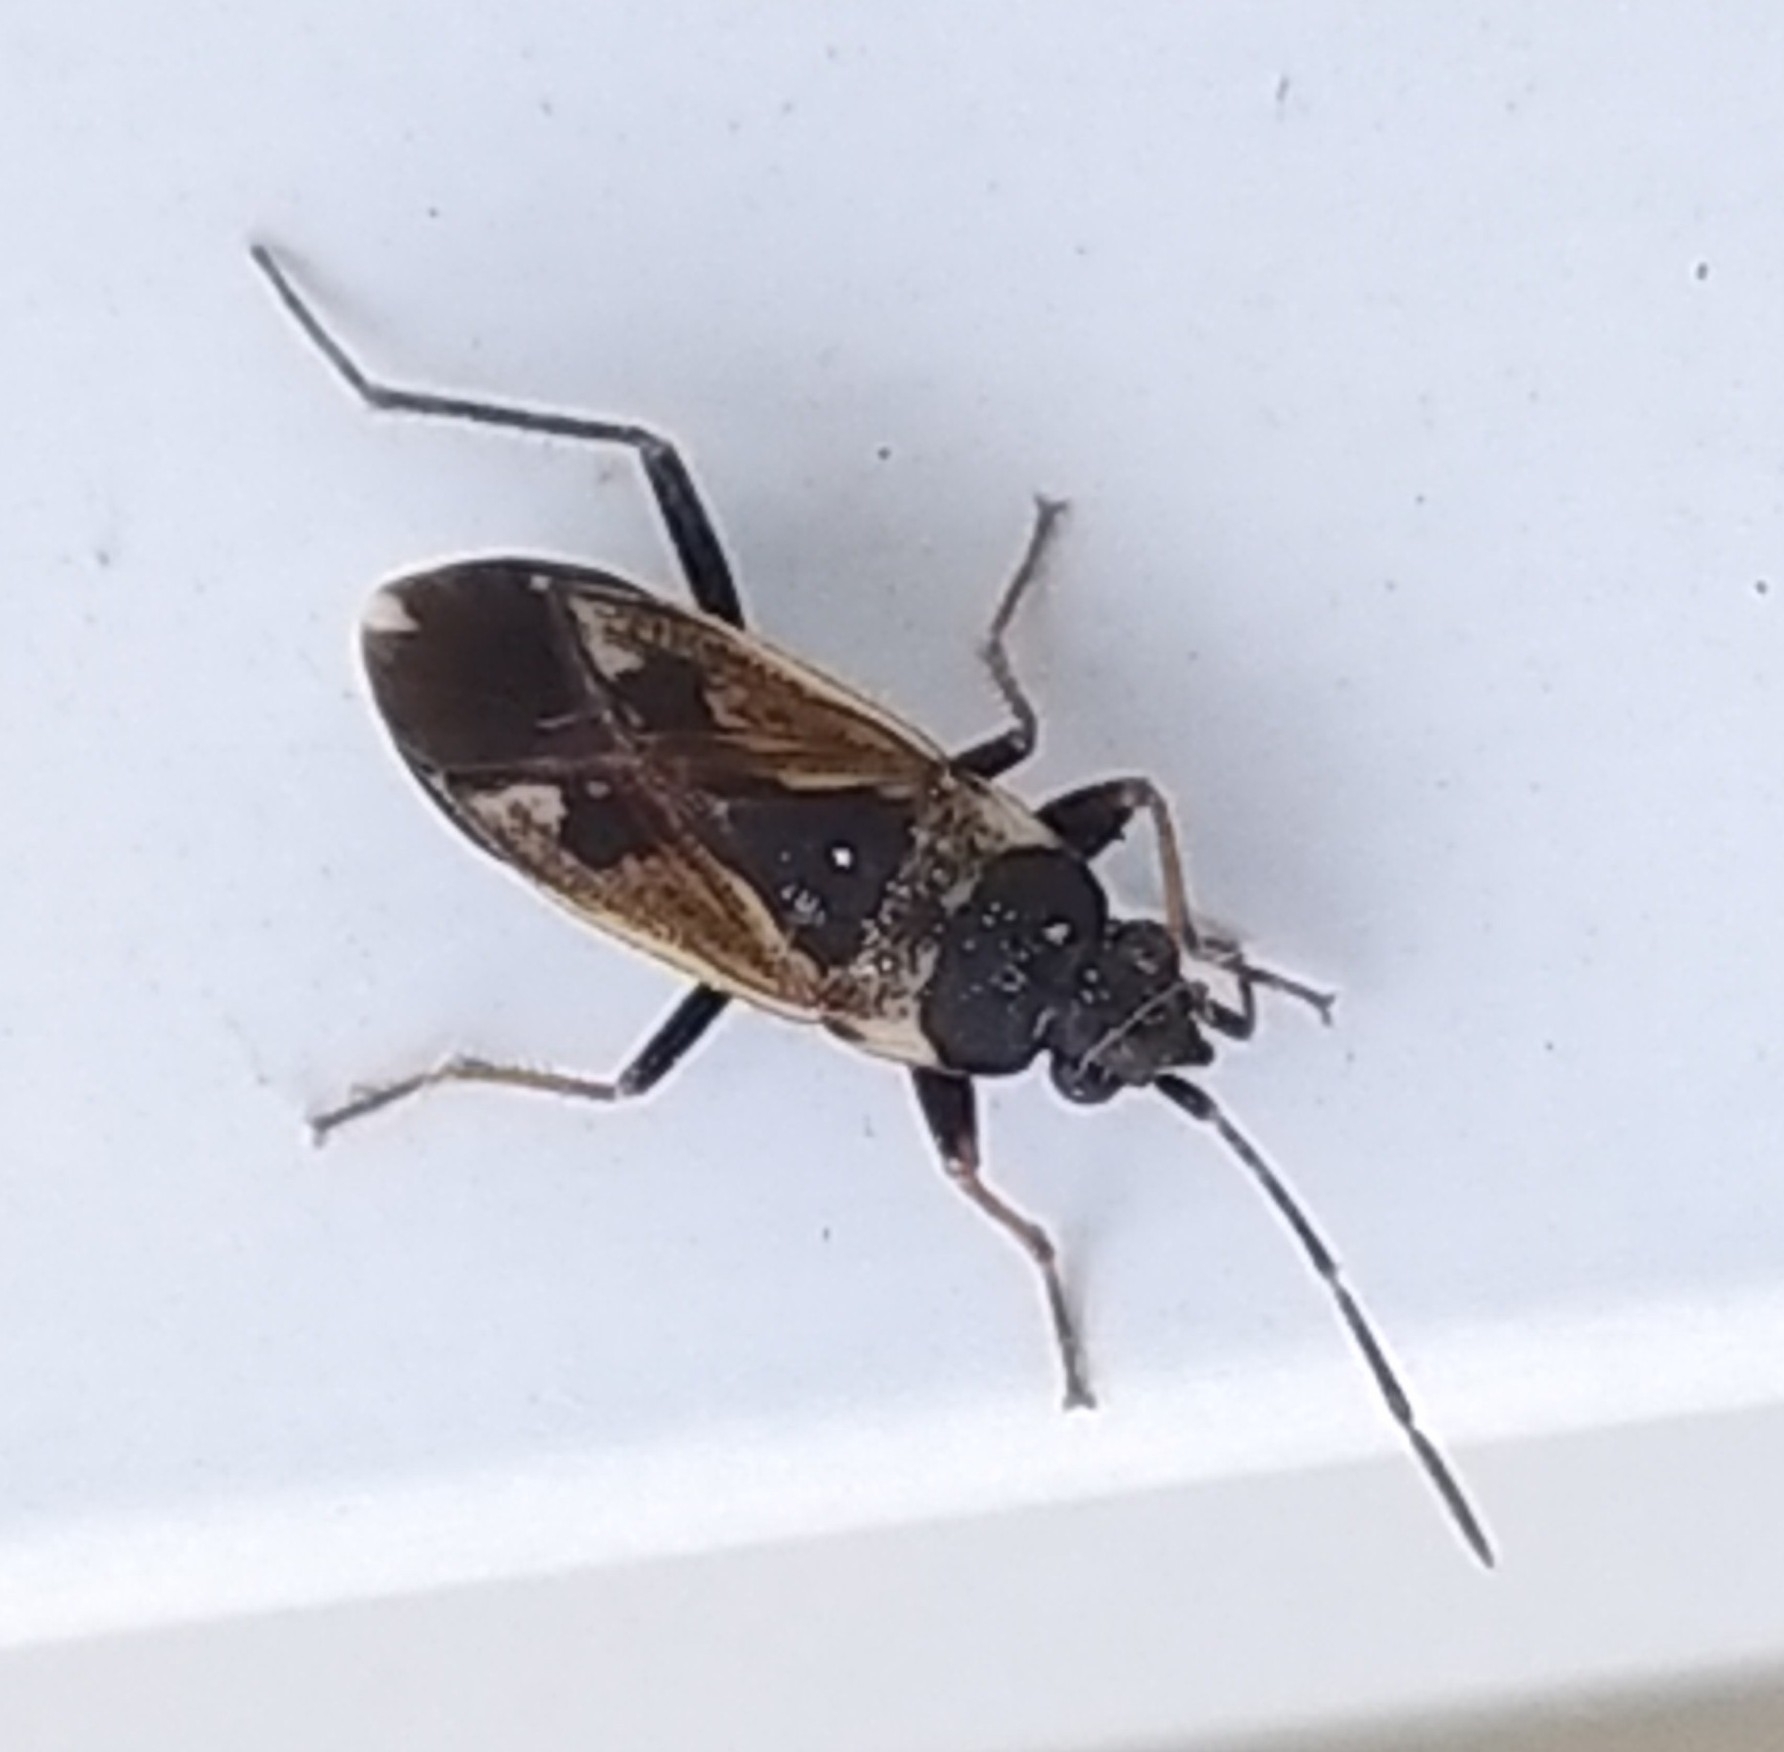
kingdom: Animalia
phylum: Arthropoda
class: Insecta
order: Hemiptera
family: Rhyparochromidae
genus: Rhyparochromus
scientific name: Rhyparochromus vulgaris
